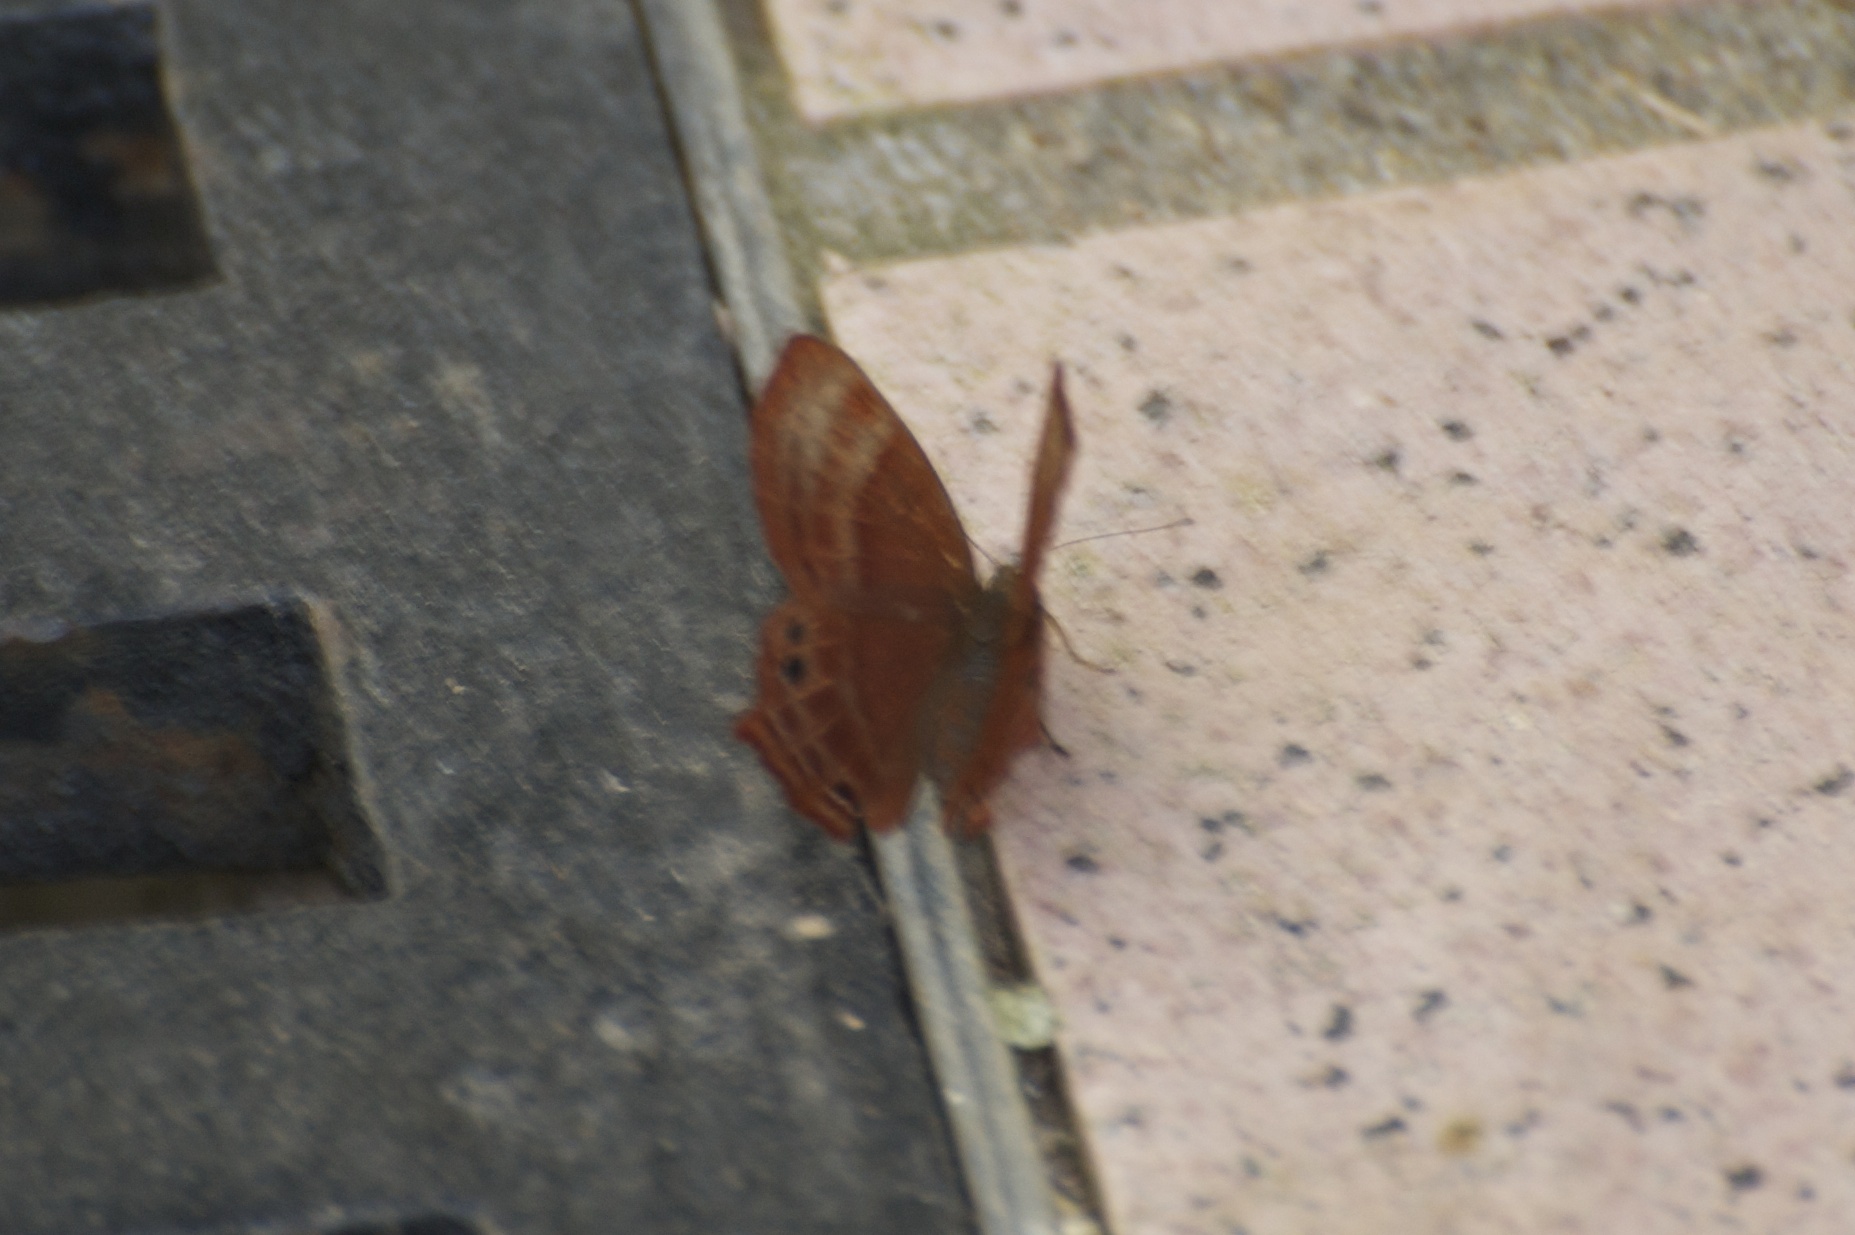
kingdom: Animalia
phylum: Arthropoda
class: Insecta
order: Lepidoptera
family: Lycaenidae
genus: Abisara
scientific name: Abisara echeria
